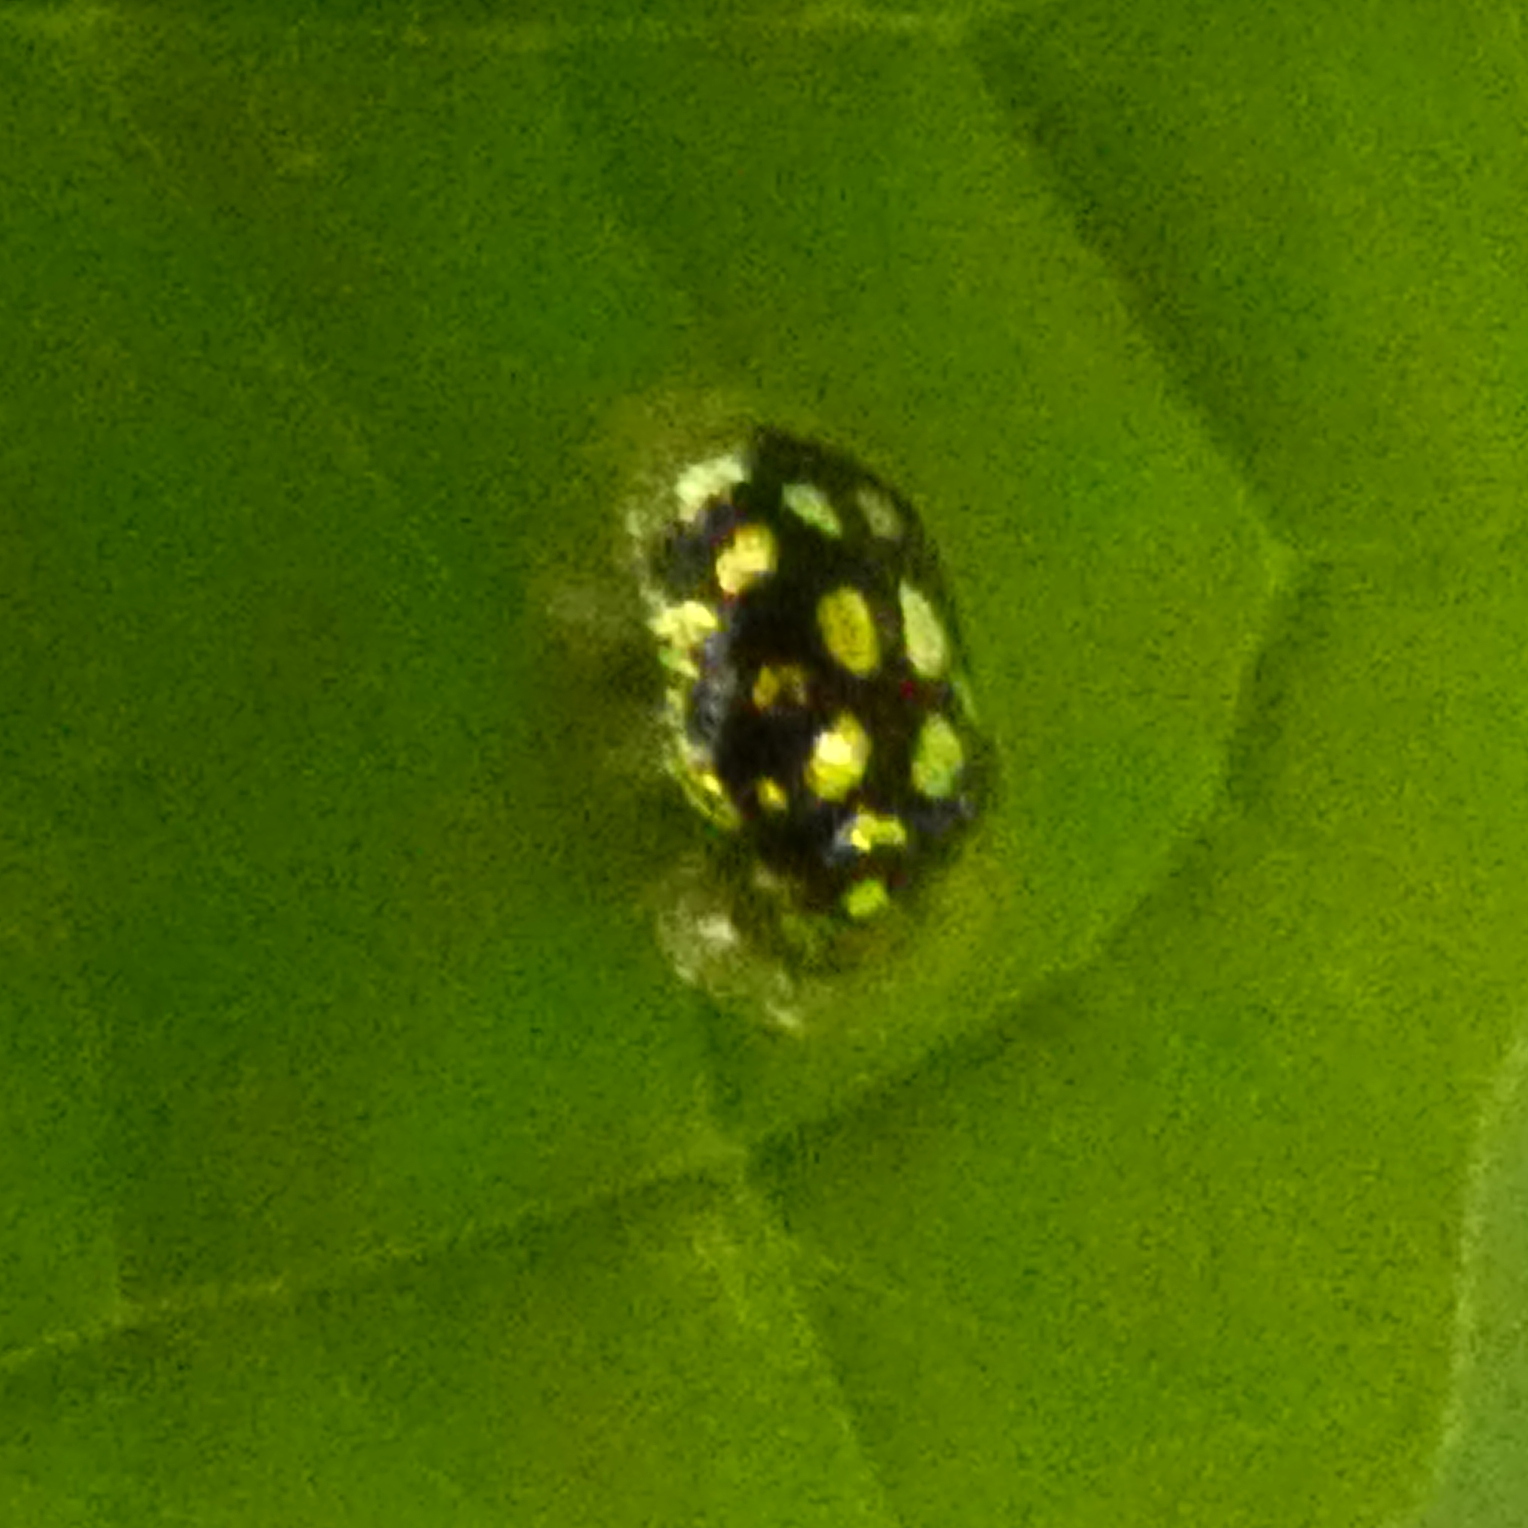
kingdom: Animalia
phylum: Arthropoda
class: Insecta
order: Coleoptera
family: Chrysomelidae
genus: Plagiometriona
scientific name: Plagiometriona microcera
